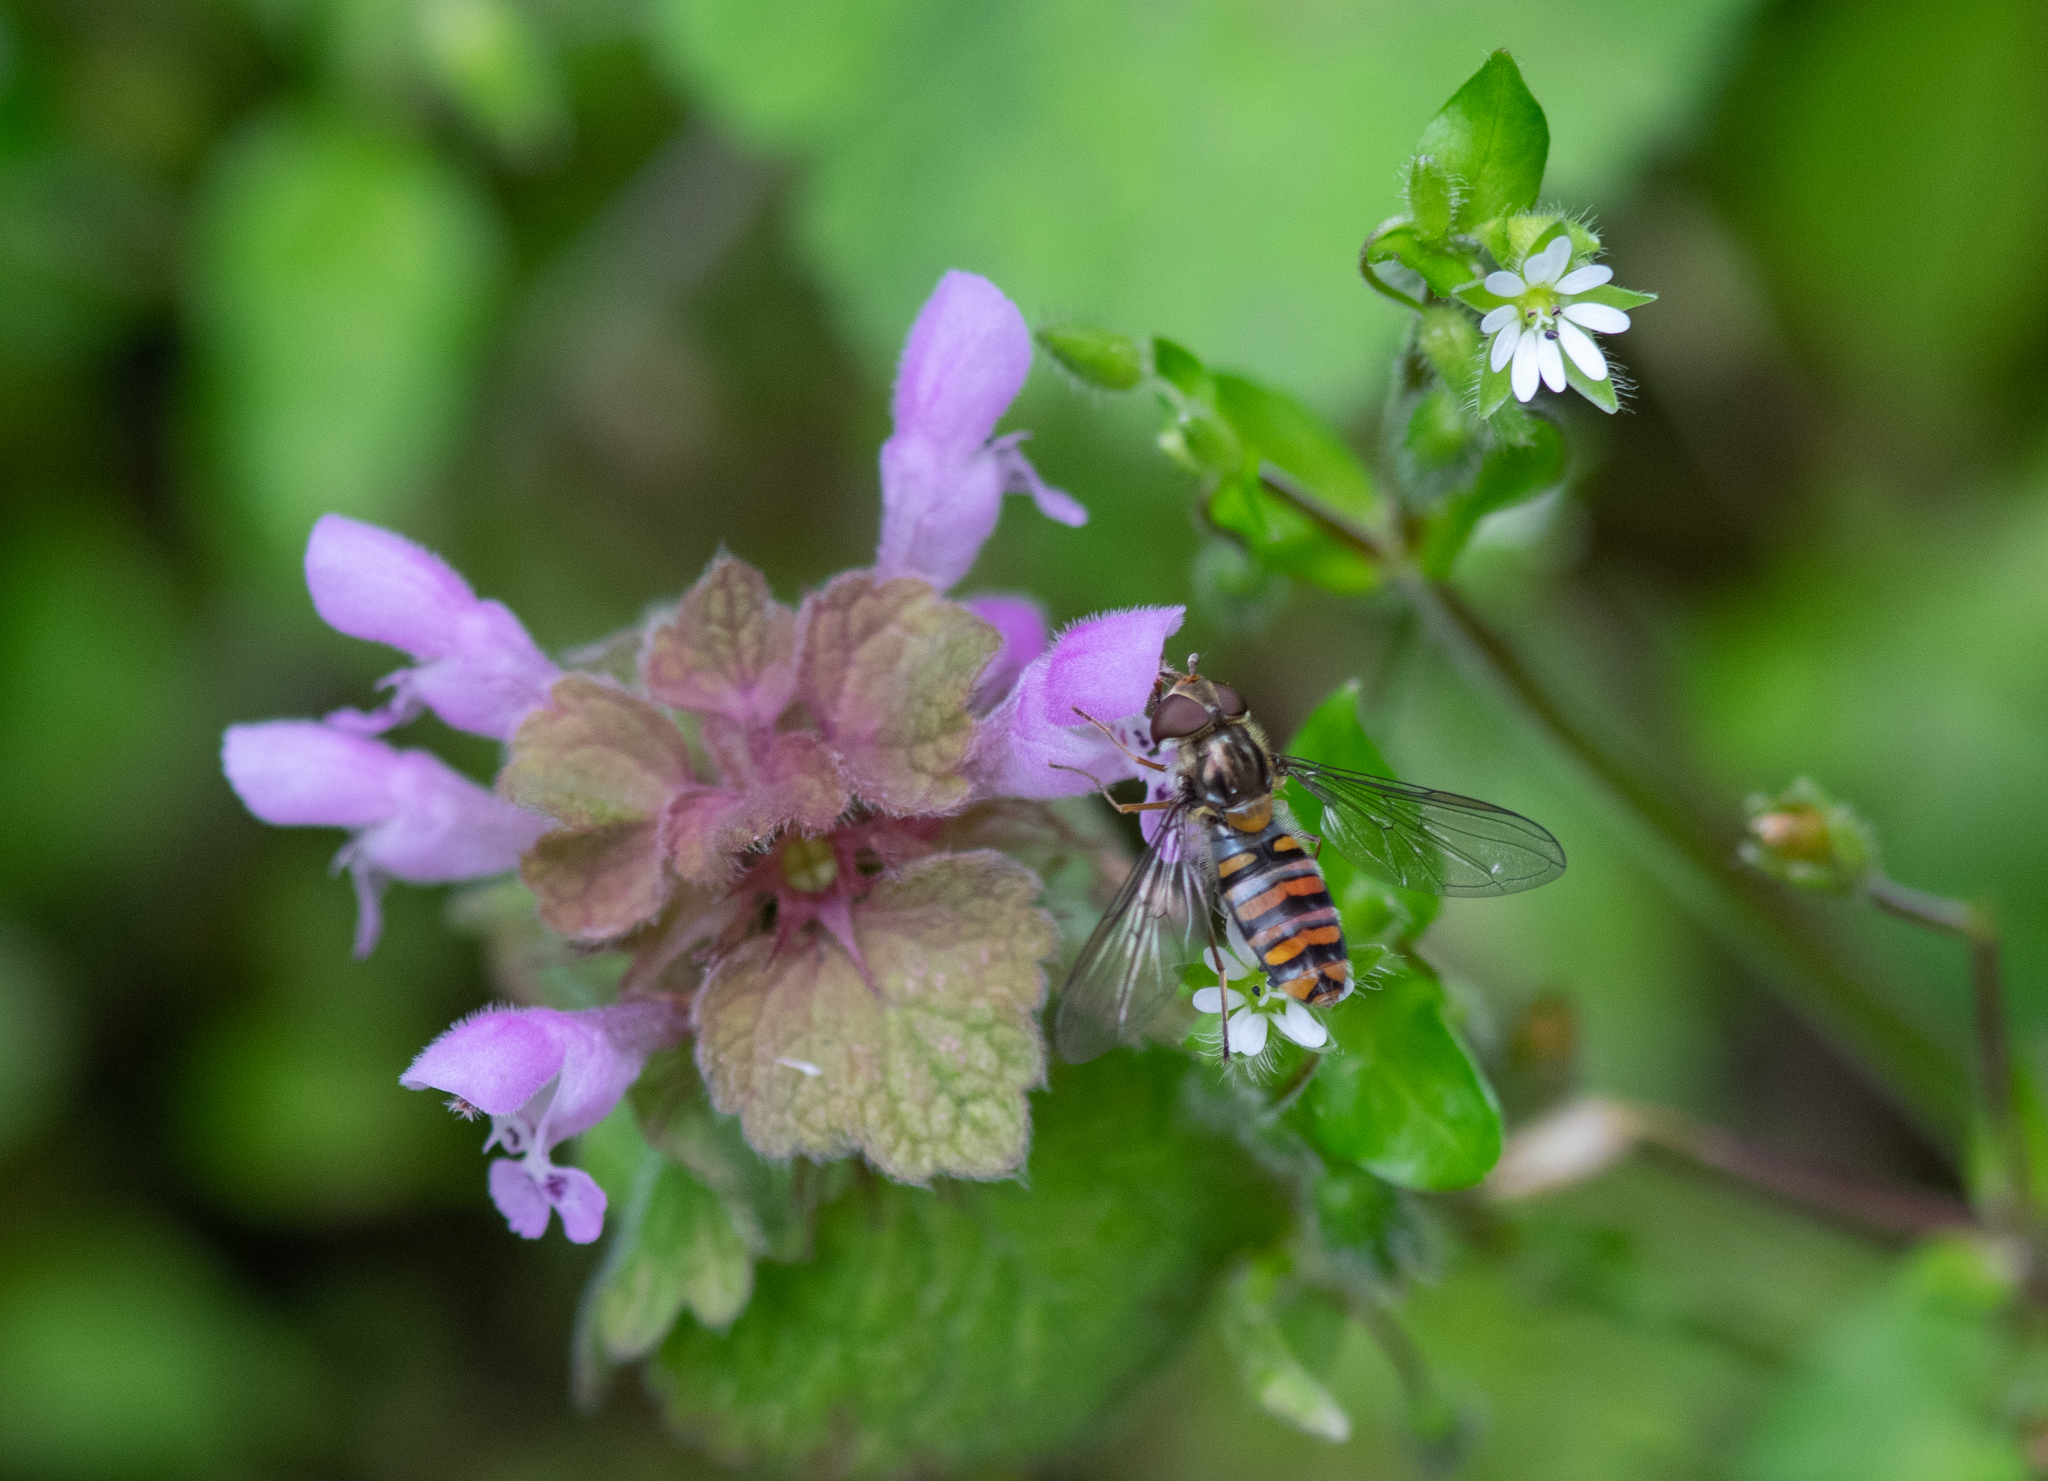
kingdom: Animalia
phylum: Arthropoda
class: Insecta
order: Diptera
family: Syrphidae
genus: Episyrphus
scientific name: Episyrphus balteatus
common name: Marmalade hoverfly
